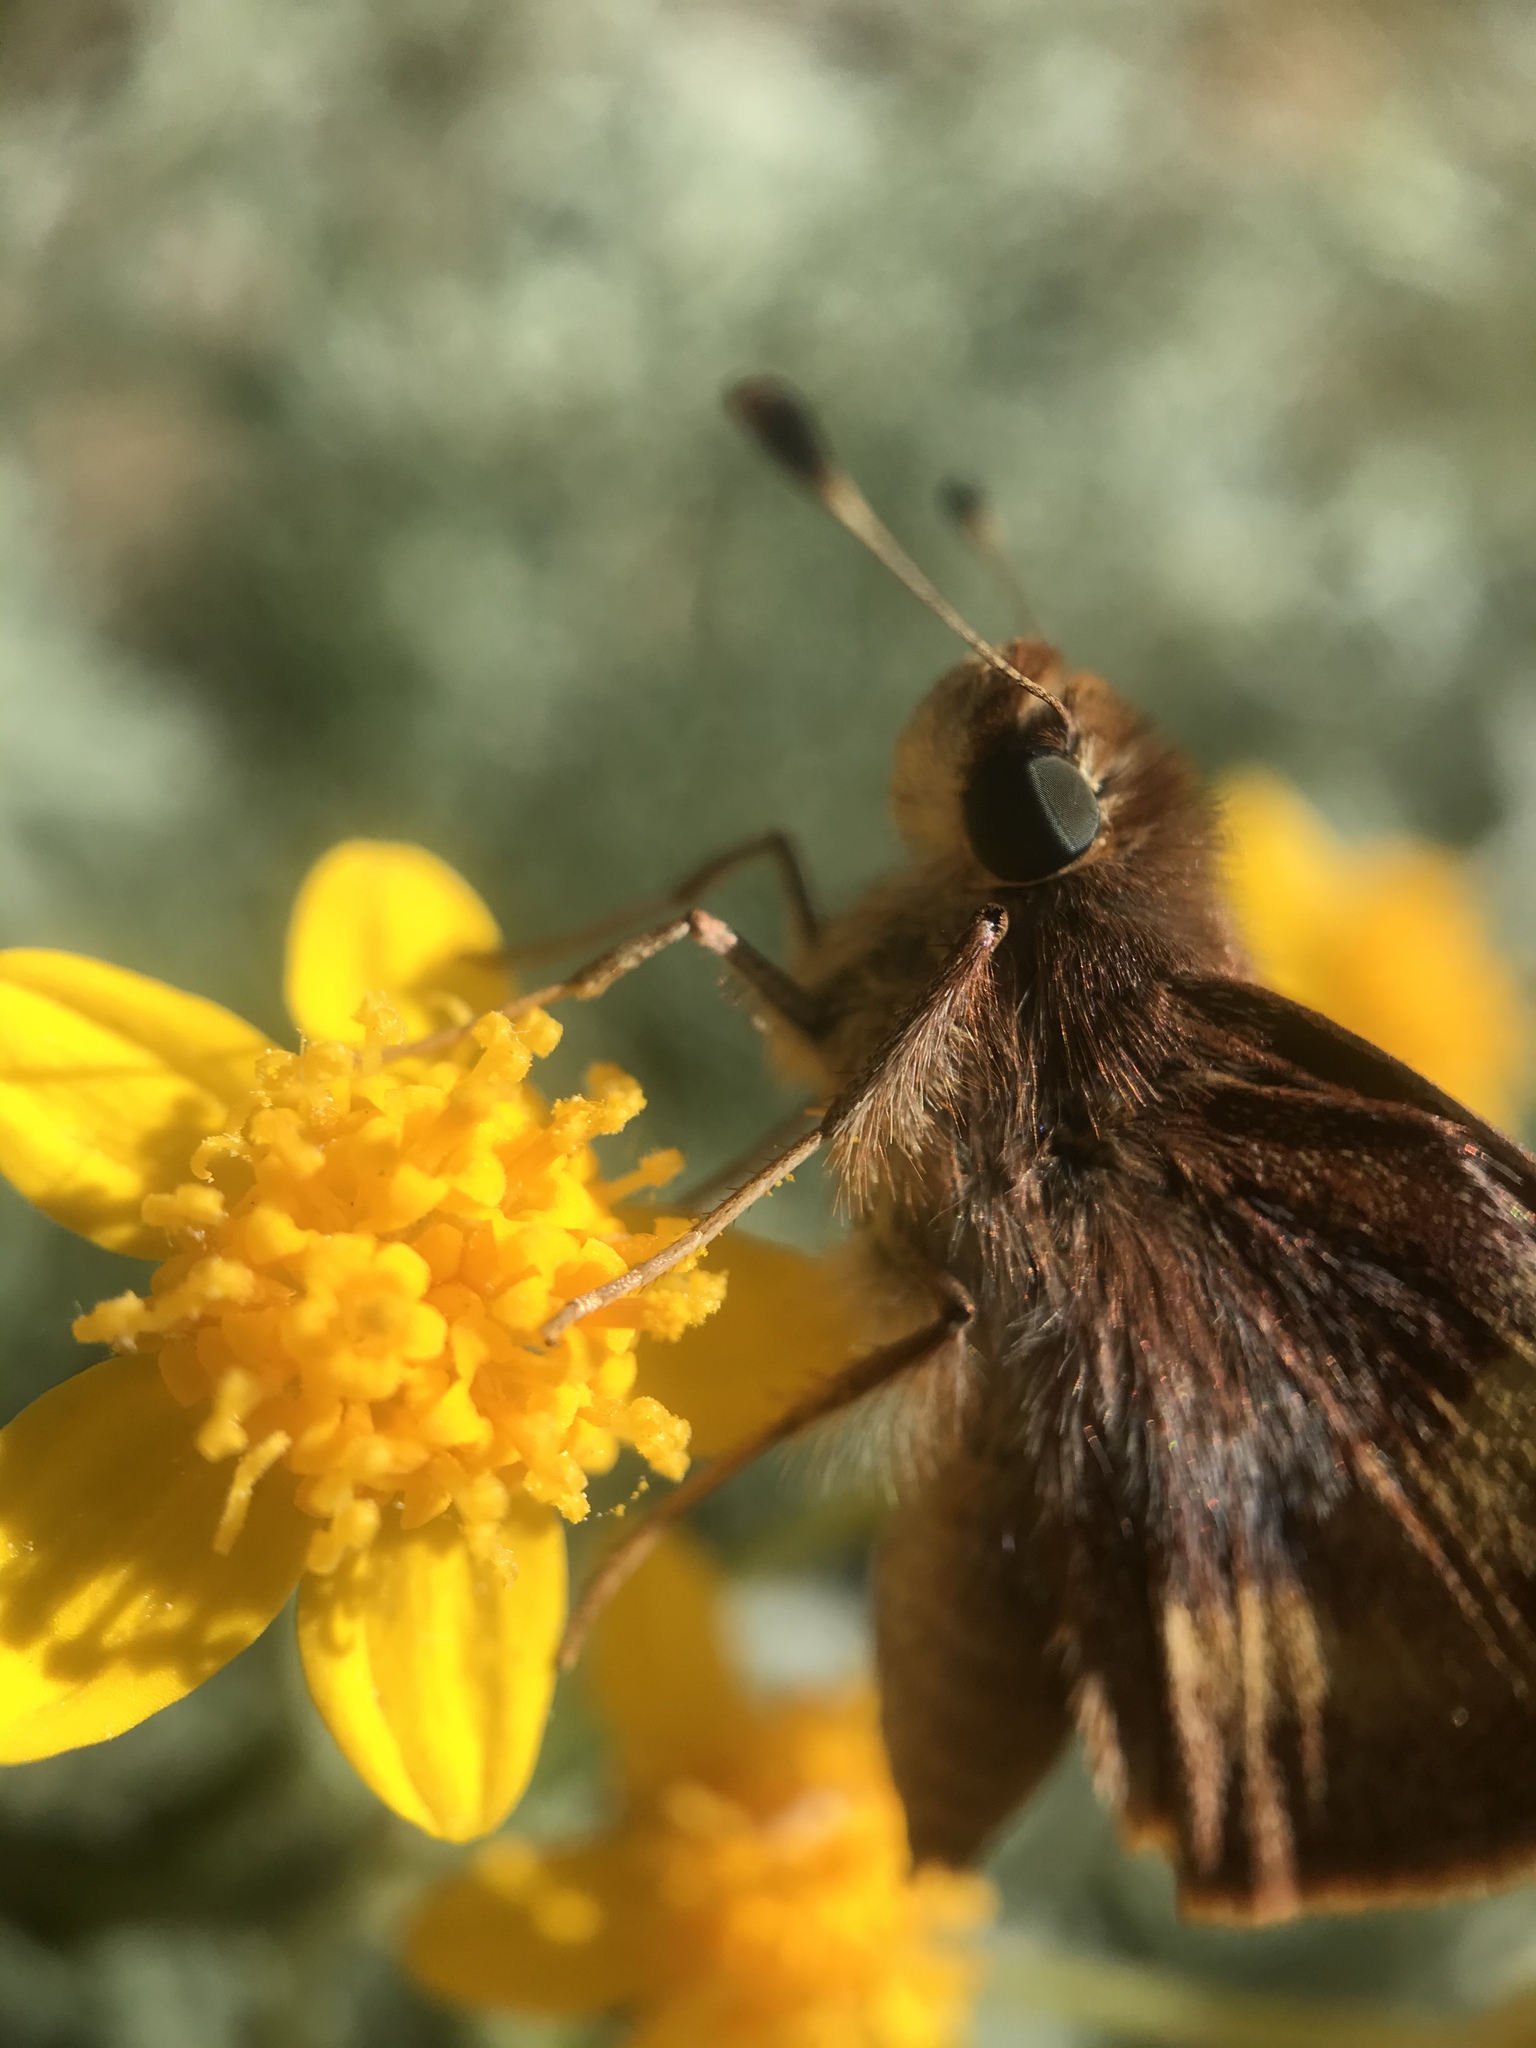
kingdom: Animalia
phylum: Arthropoda
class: Insecta
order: Lepidoptera
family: Hesperiidae
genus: Lon
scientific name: Lon melane
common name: Umber skipper
